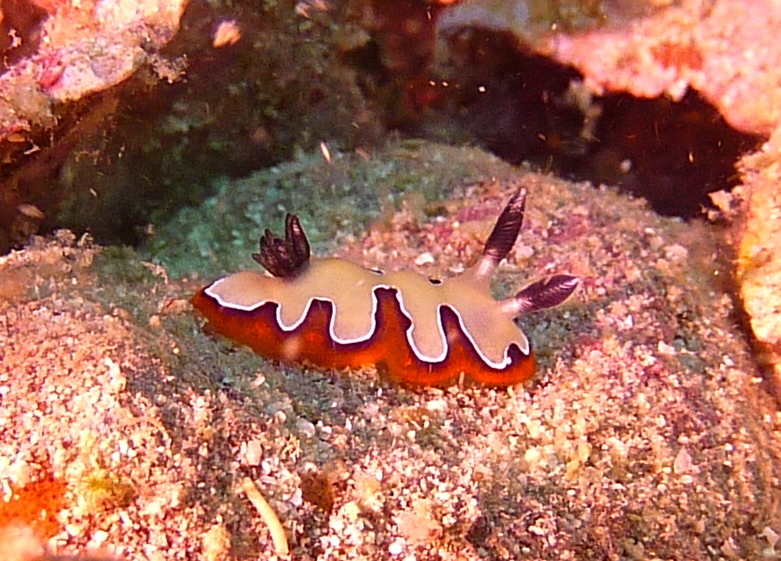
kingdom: Animalia
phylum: Mollusca
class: Gastropoda
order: Nudibranchia
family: Chromodorididae
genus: Goniobranchus
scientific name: Goniobranchus fidelis
